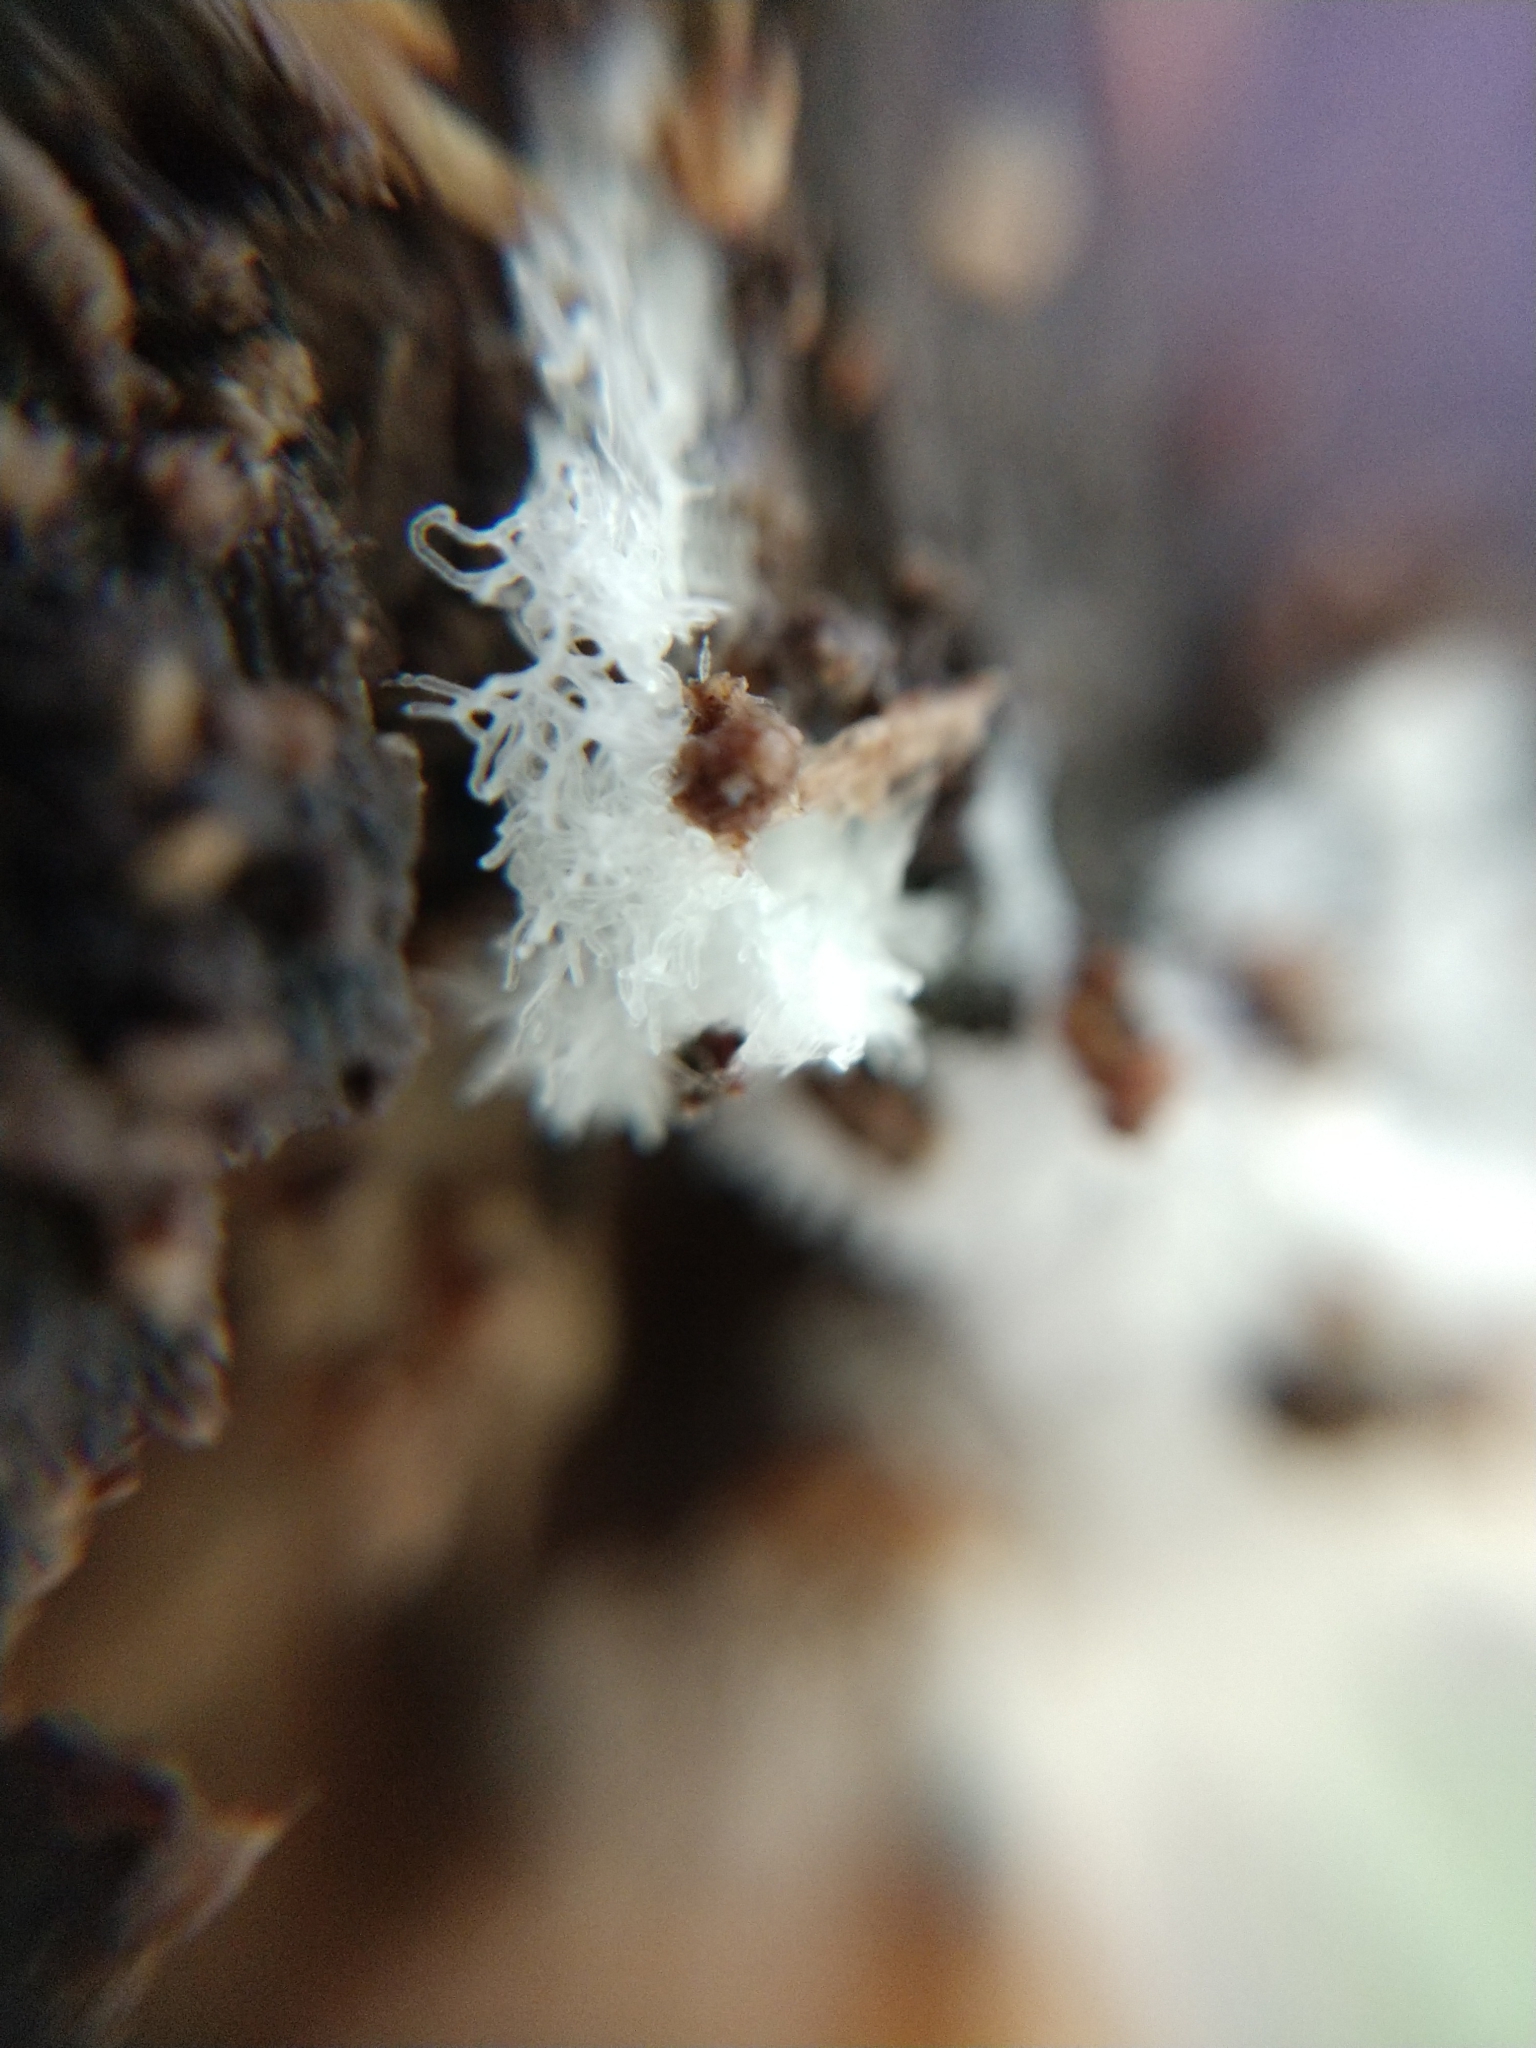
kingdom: Protozoa
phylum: Mycetozoa
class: Protosteliomycetes
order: Ceratiomyxales
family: Ceratiomyxaceae
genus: Ceratiomyxa
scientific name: Ceratiomyxa fruticulosa
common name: Honeycomb coral slime mold
